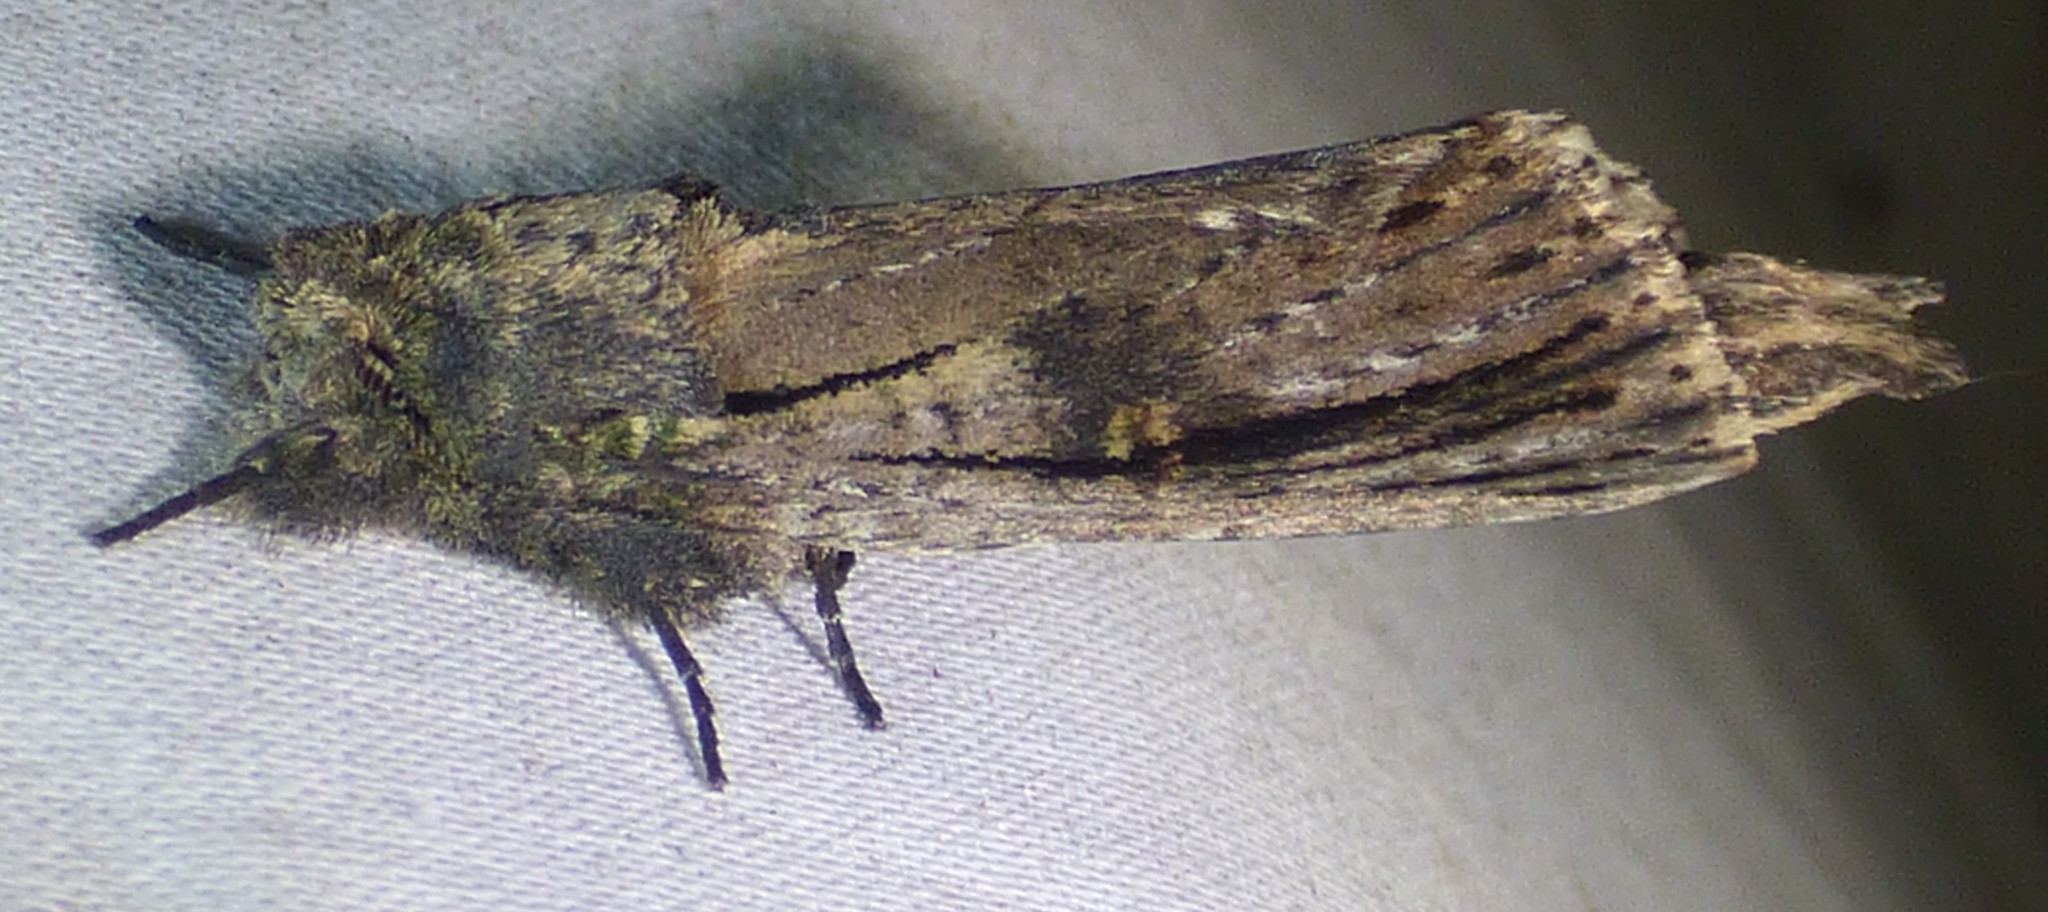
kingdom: Animalia
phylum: Arthropoda
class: Insecta
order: Lepidoptera
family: Notodontidae
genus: Schizura
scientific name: Schizura ipomaeae
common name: Morning-glory prominent
